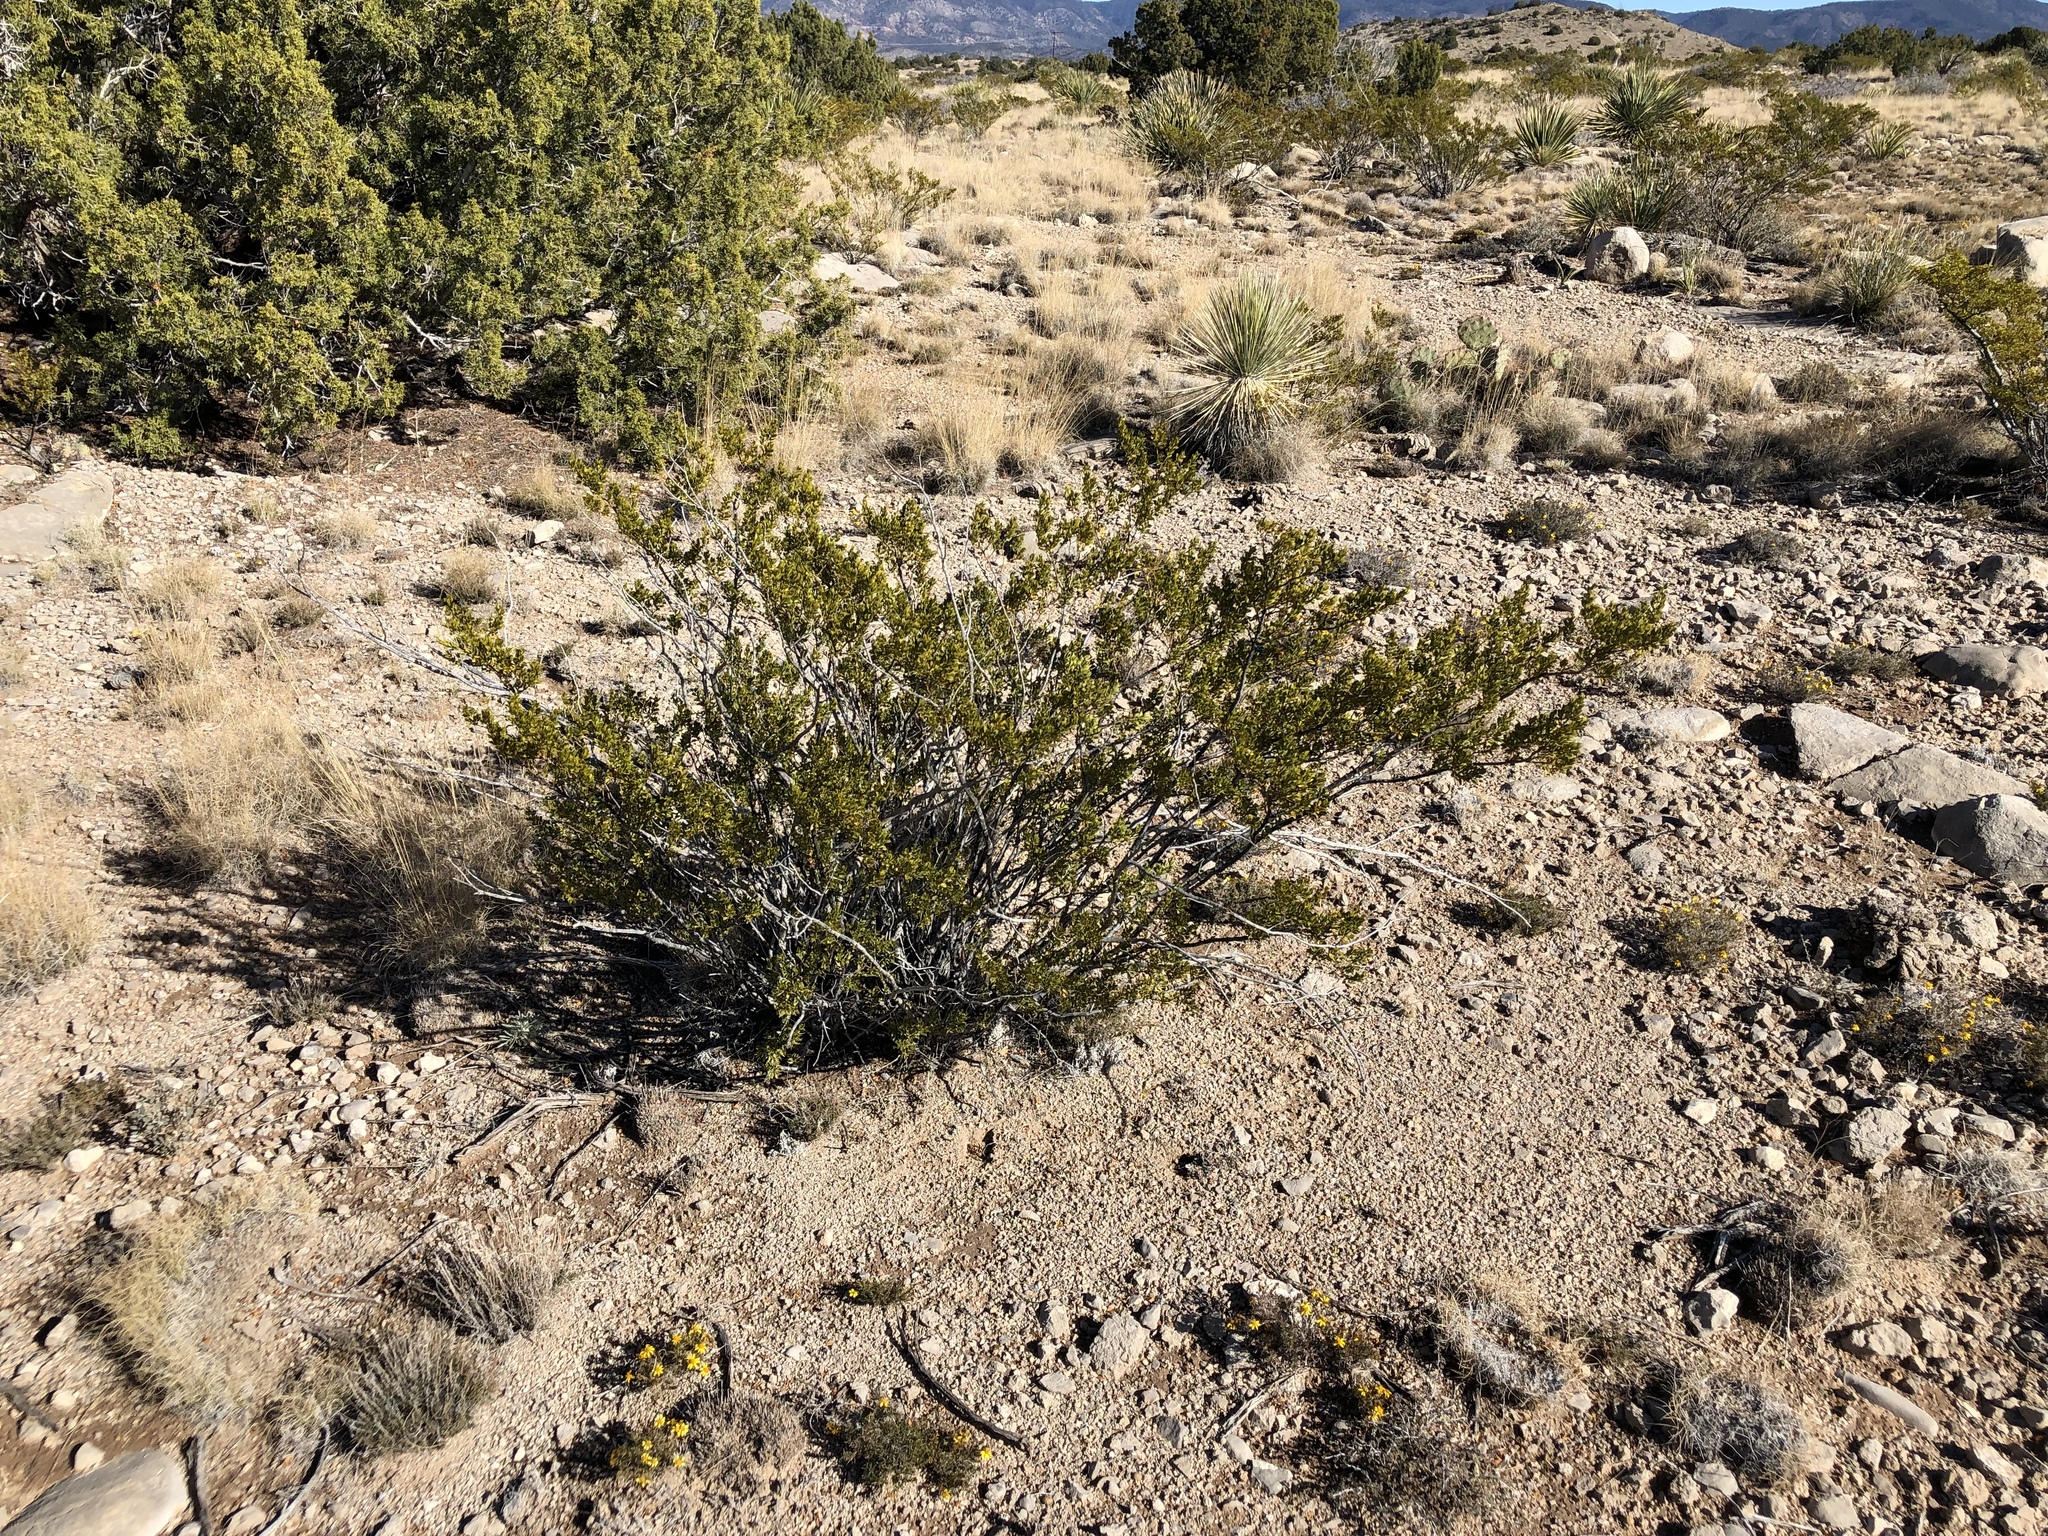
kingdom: Plantae
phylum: Tracheophyta
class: Magnoliopsida
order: Zygophyllales
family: Zygophyllaceae
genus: Larrea
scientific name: Larrea tridentata
